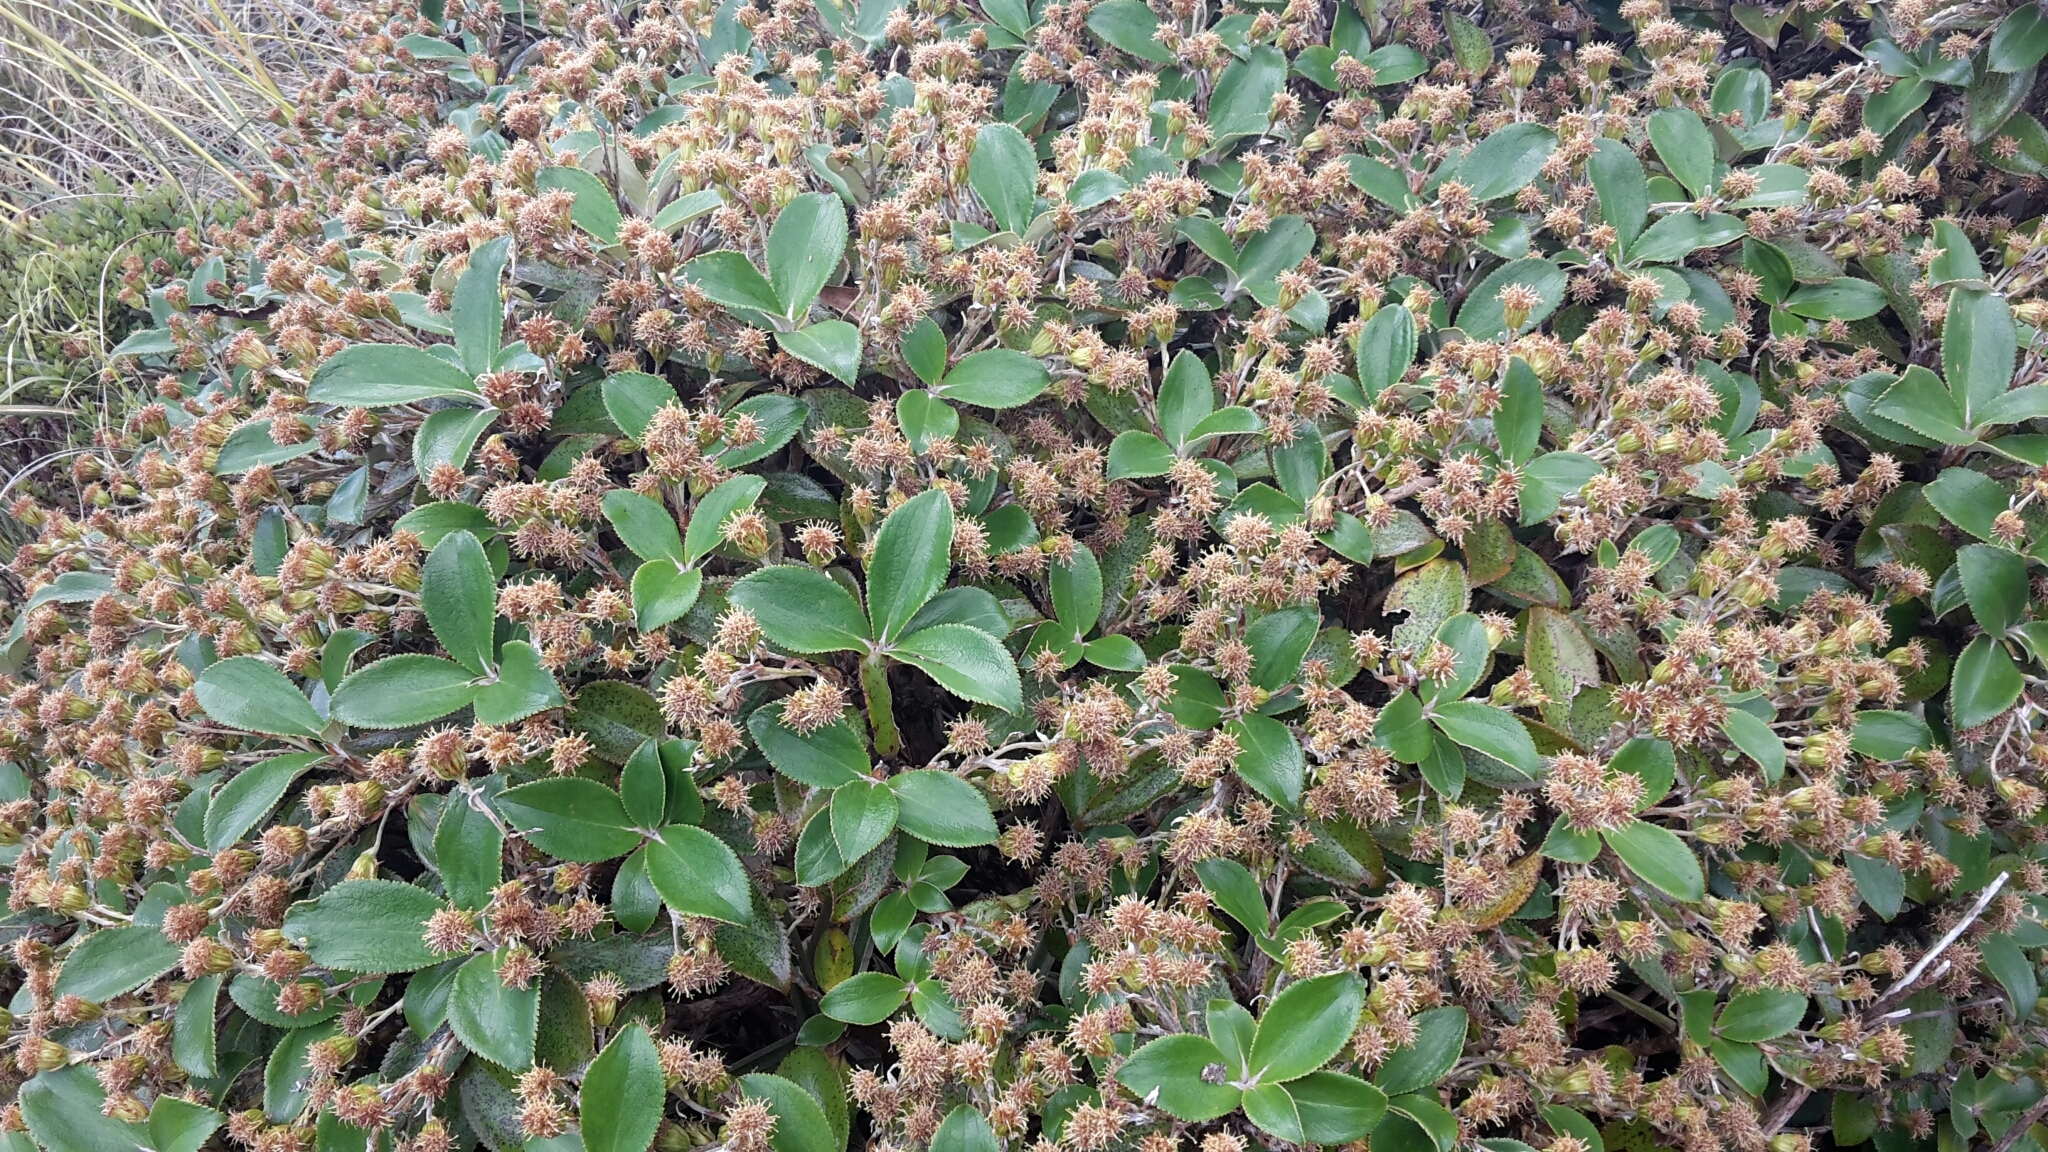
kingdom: Plantae
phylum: Tracheophyta
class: Magnoliopsida
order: Asterales
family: Asteraceae
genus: Macrolearia
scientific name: Macrolearia colensoi
